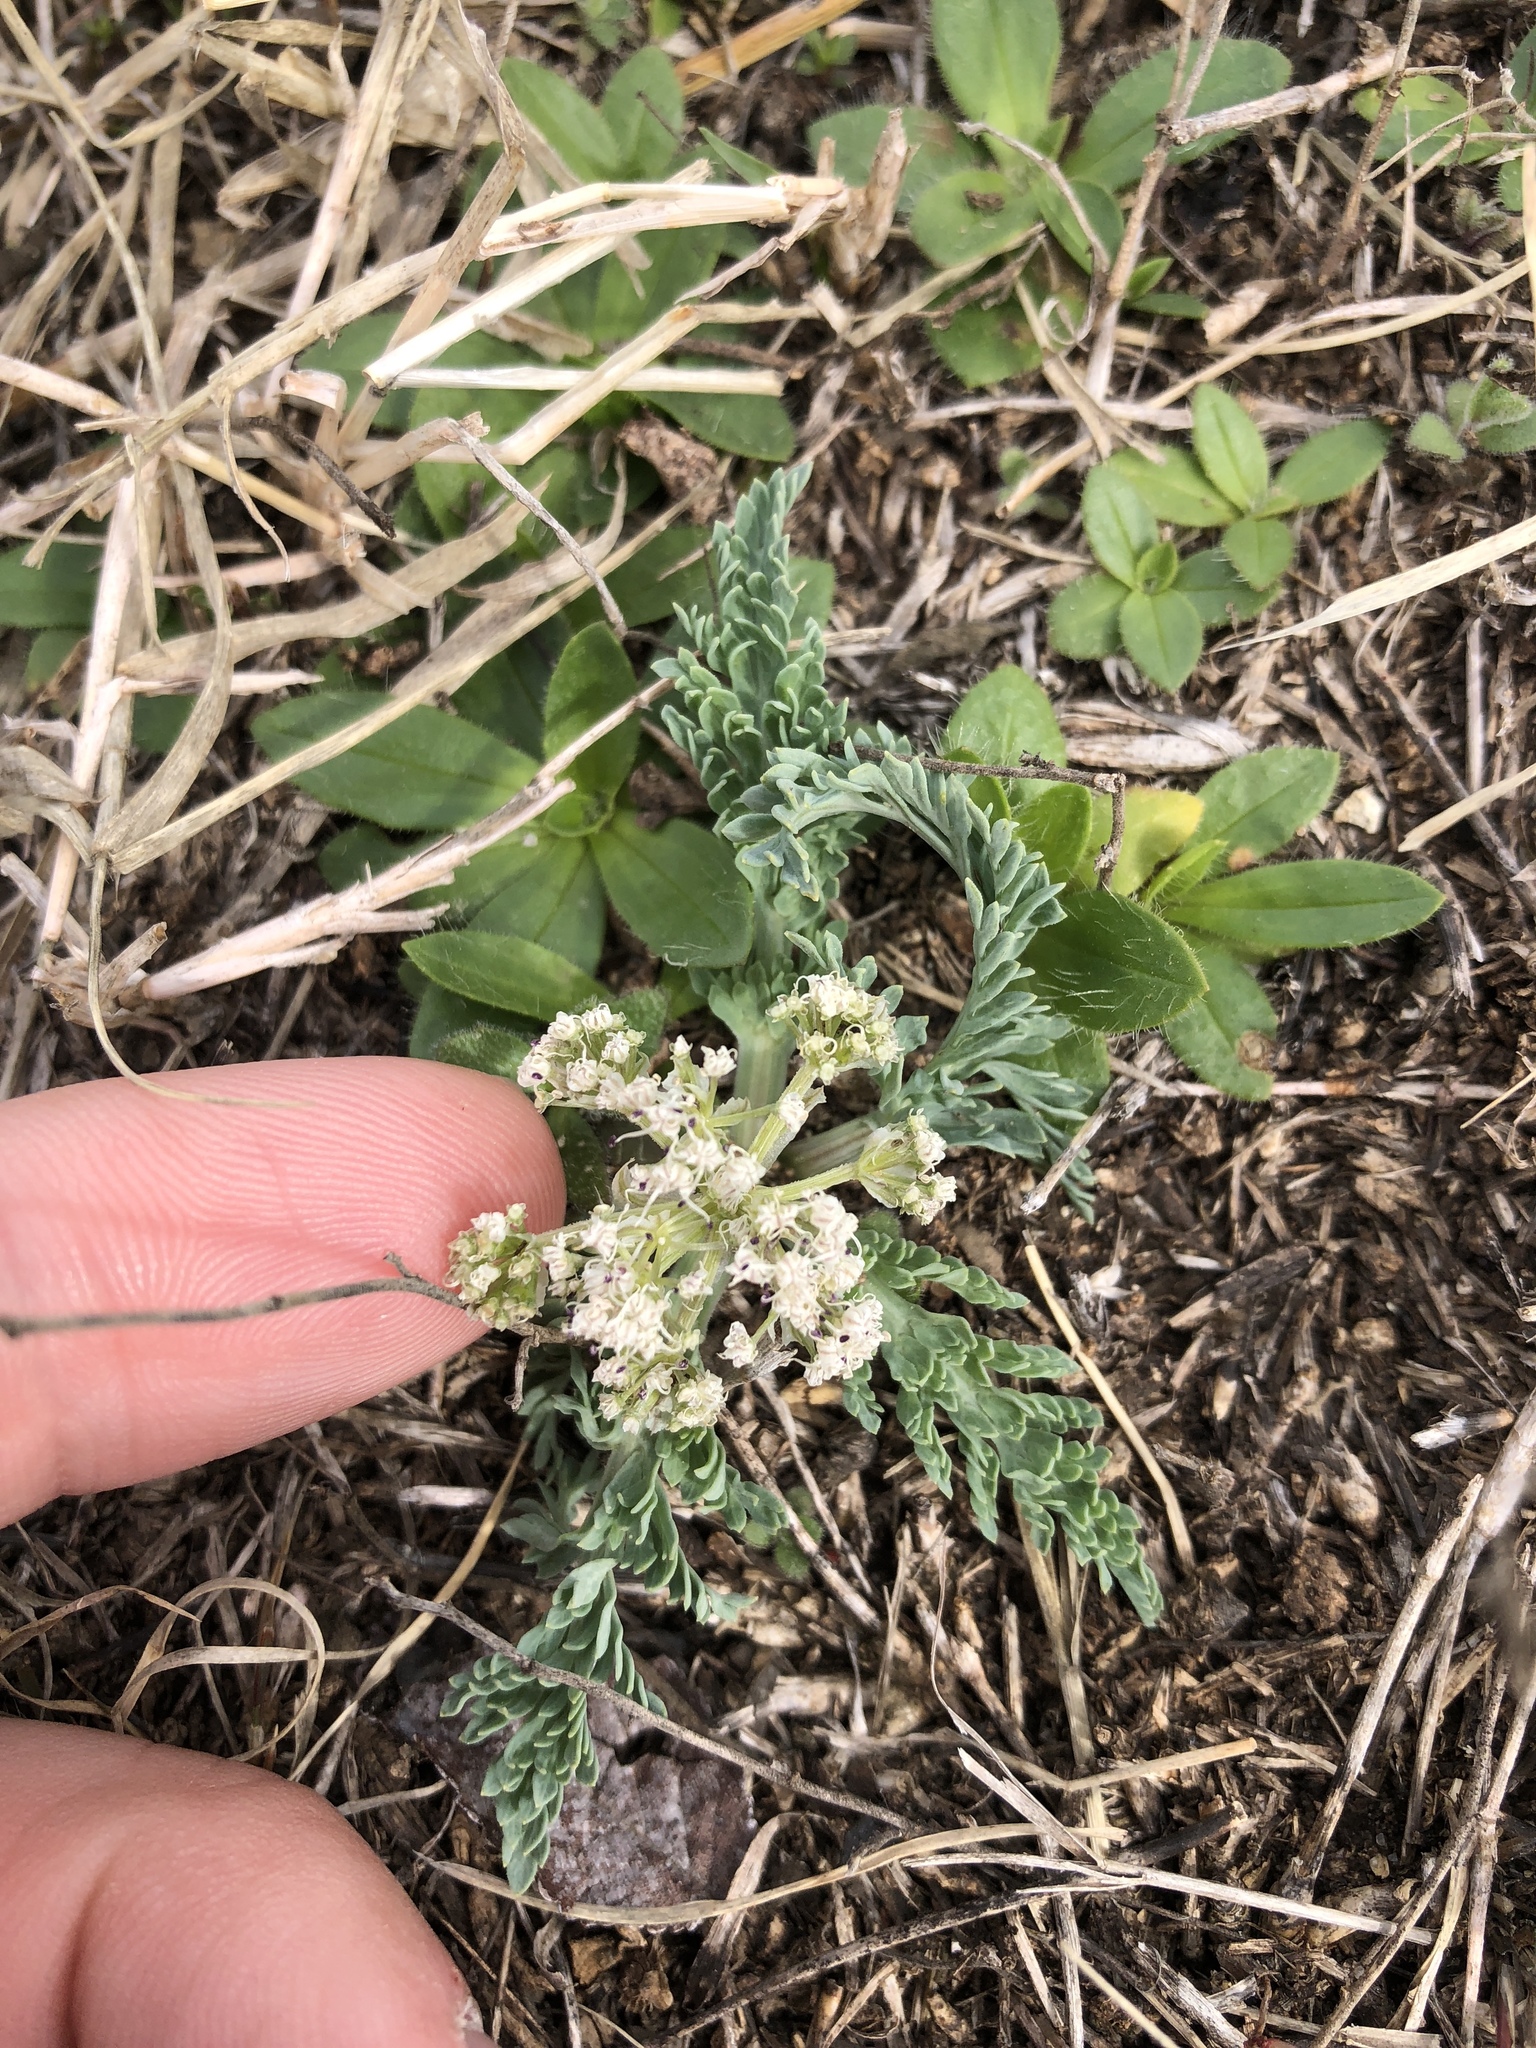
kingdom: Plantae
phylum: Tracheophyta
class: Magnoliopsida
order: Apiales
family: Apiaceae
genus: Vesper
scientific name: Vesper macrorhizus
